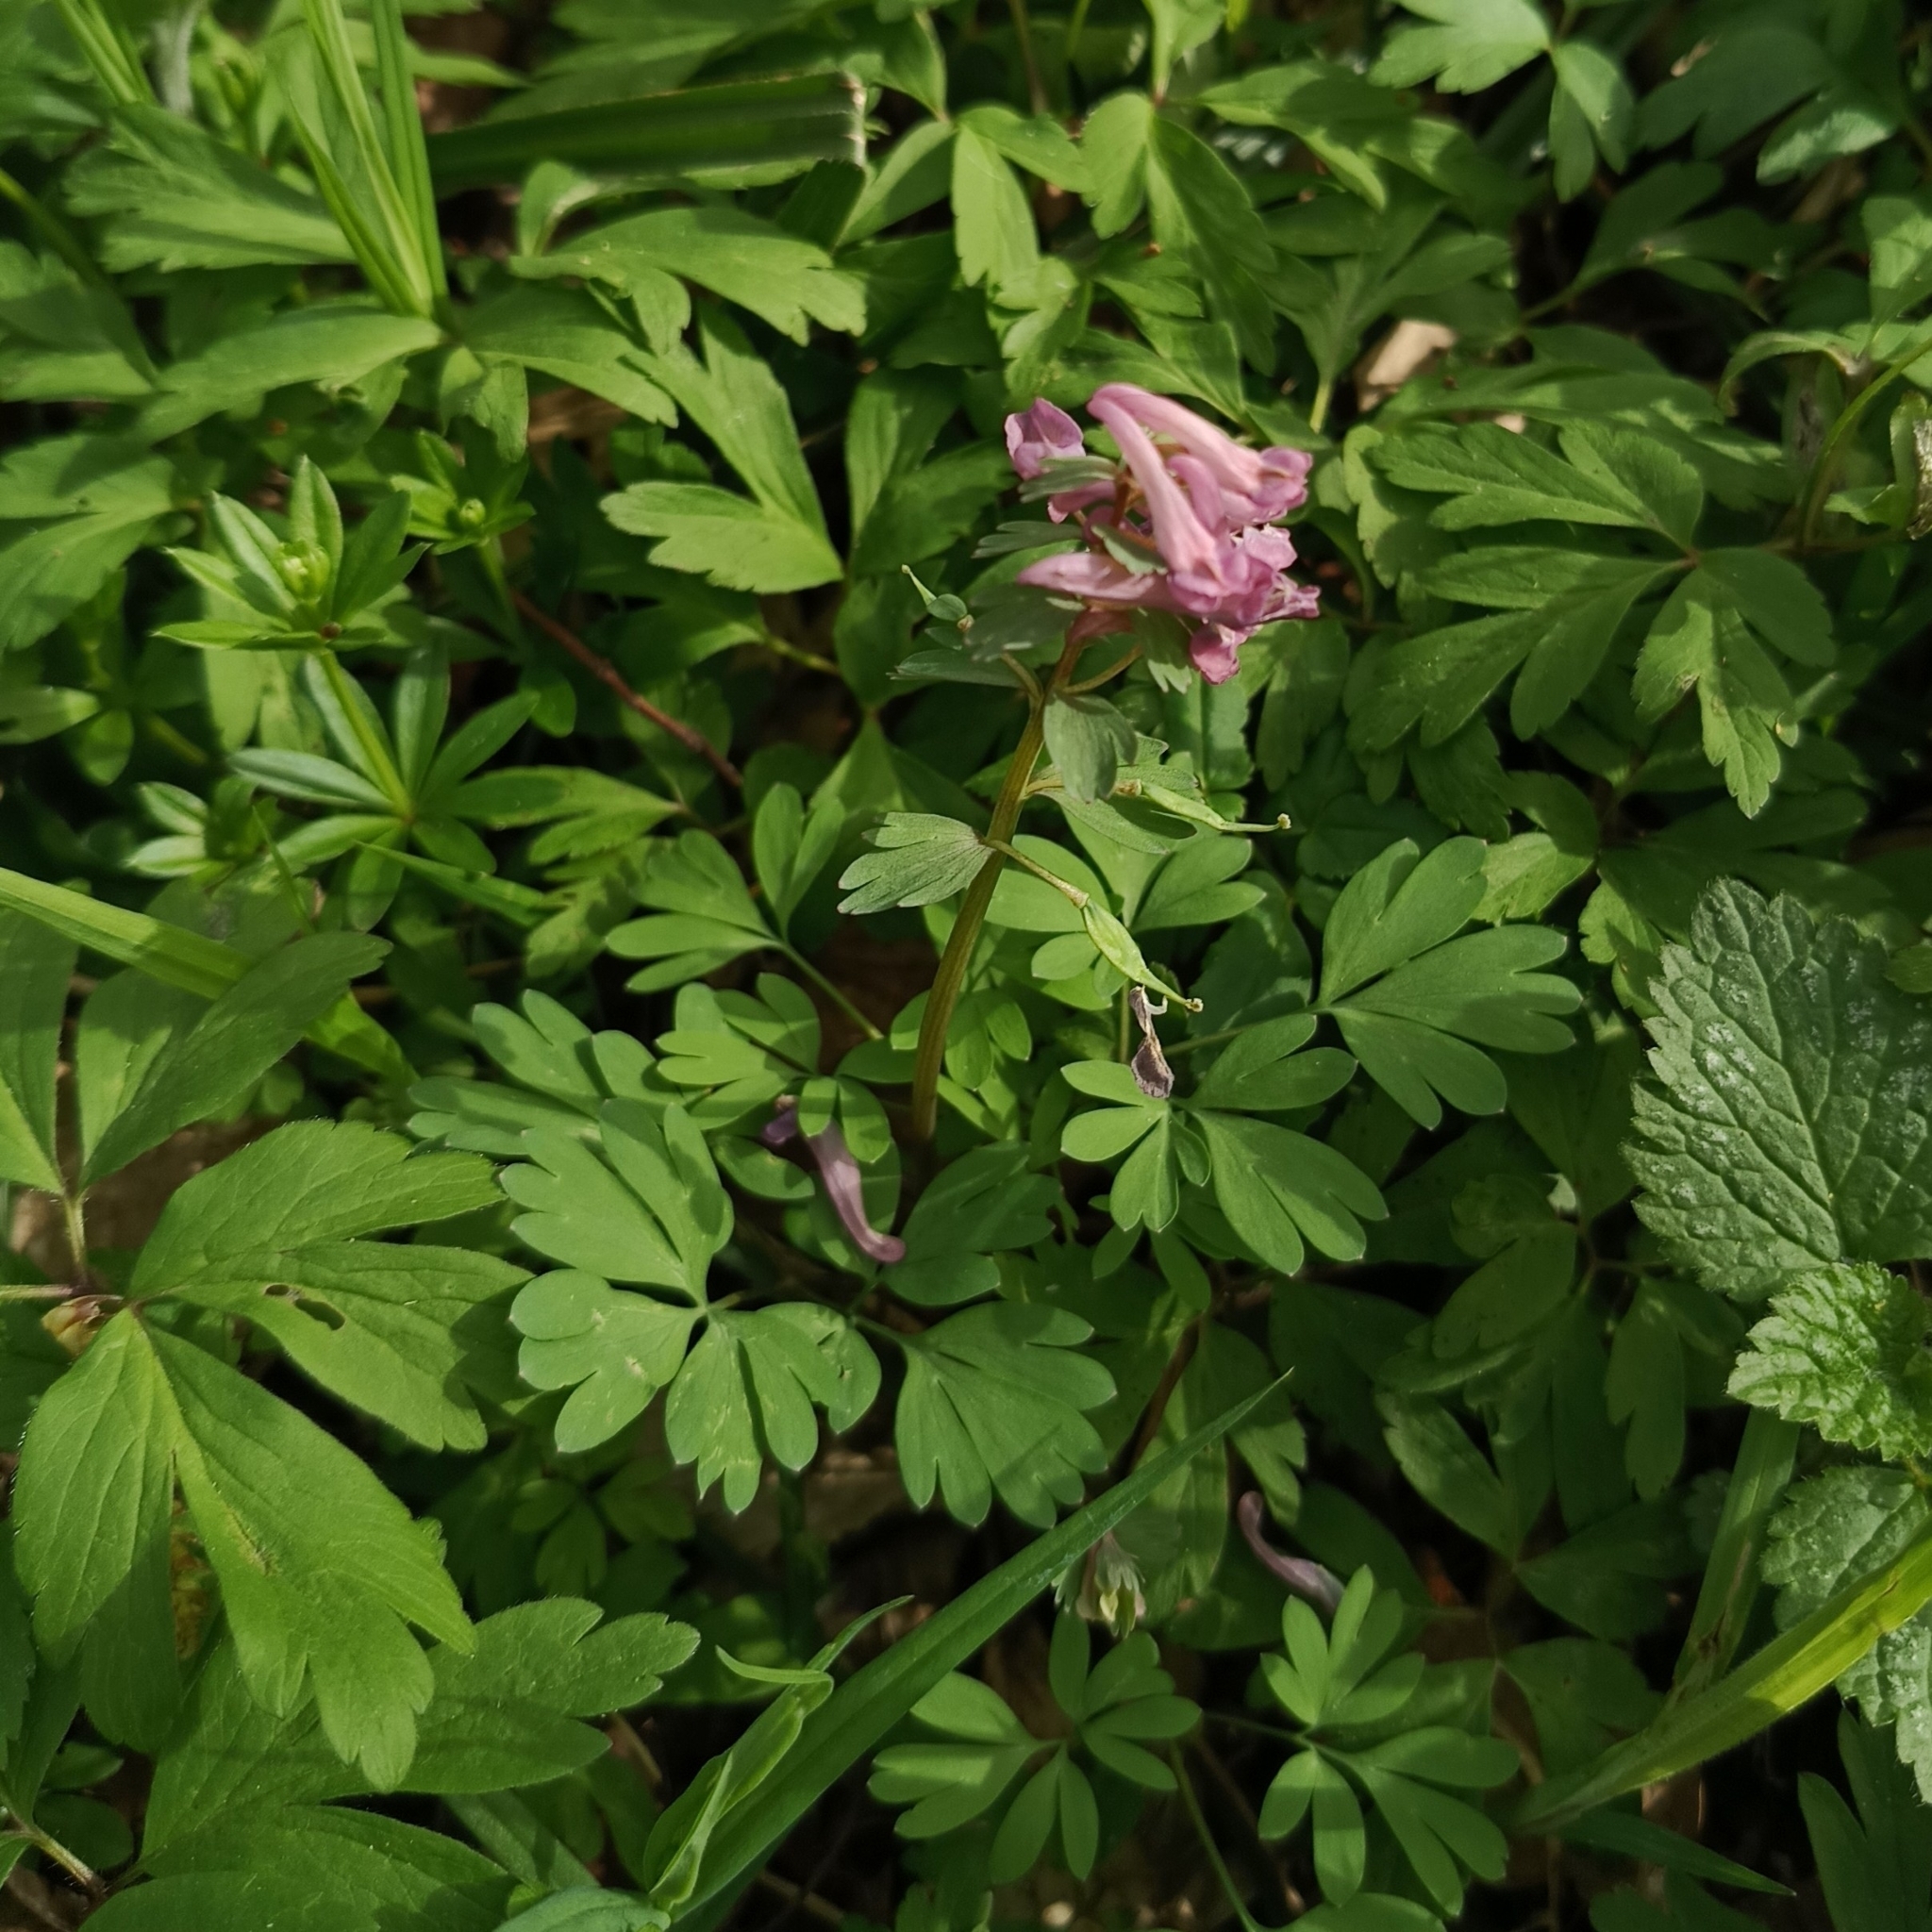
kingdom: Plantae
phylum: Tracheophyta
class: Magnoliopsida
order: Ranunculales
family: Papaveraceae
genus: Corydalis
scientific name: Corydalis solida
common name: Bird-in-a-bush
